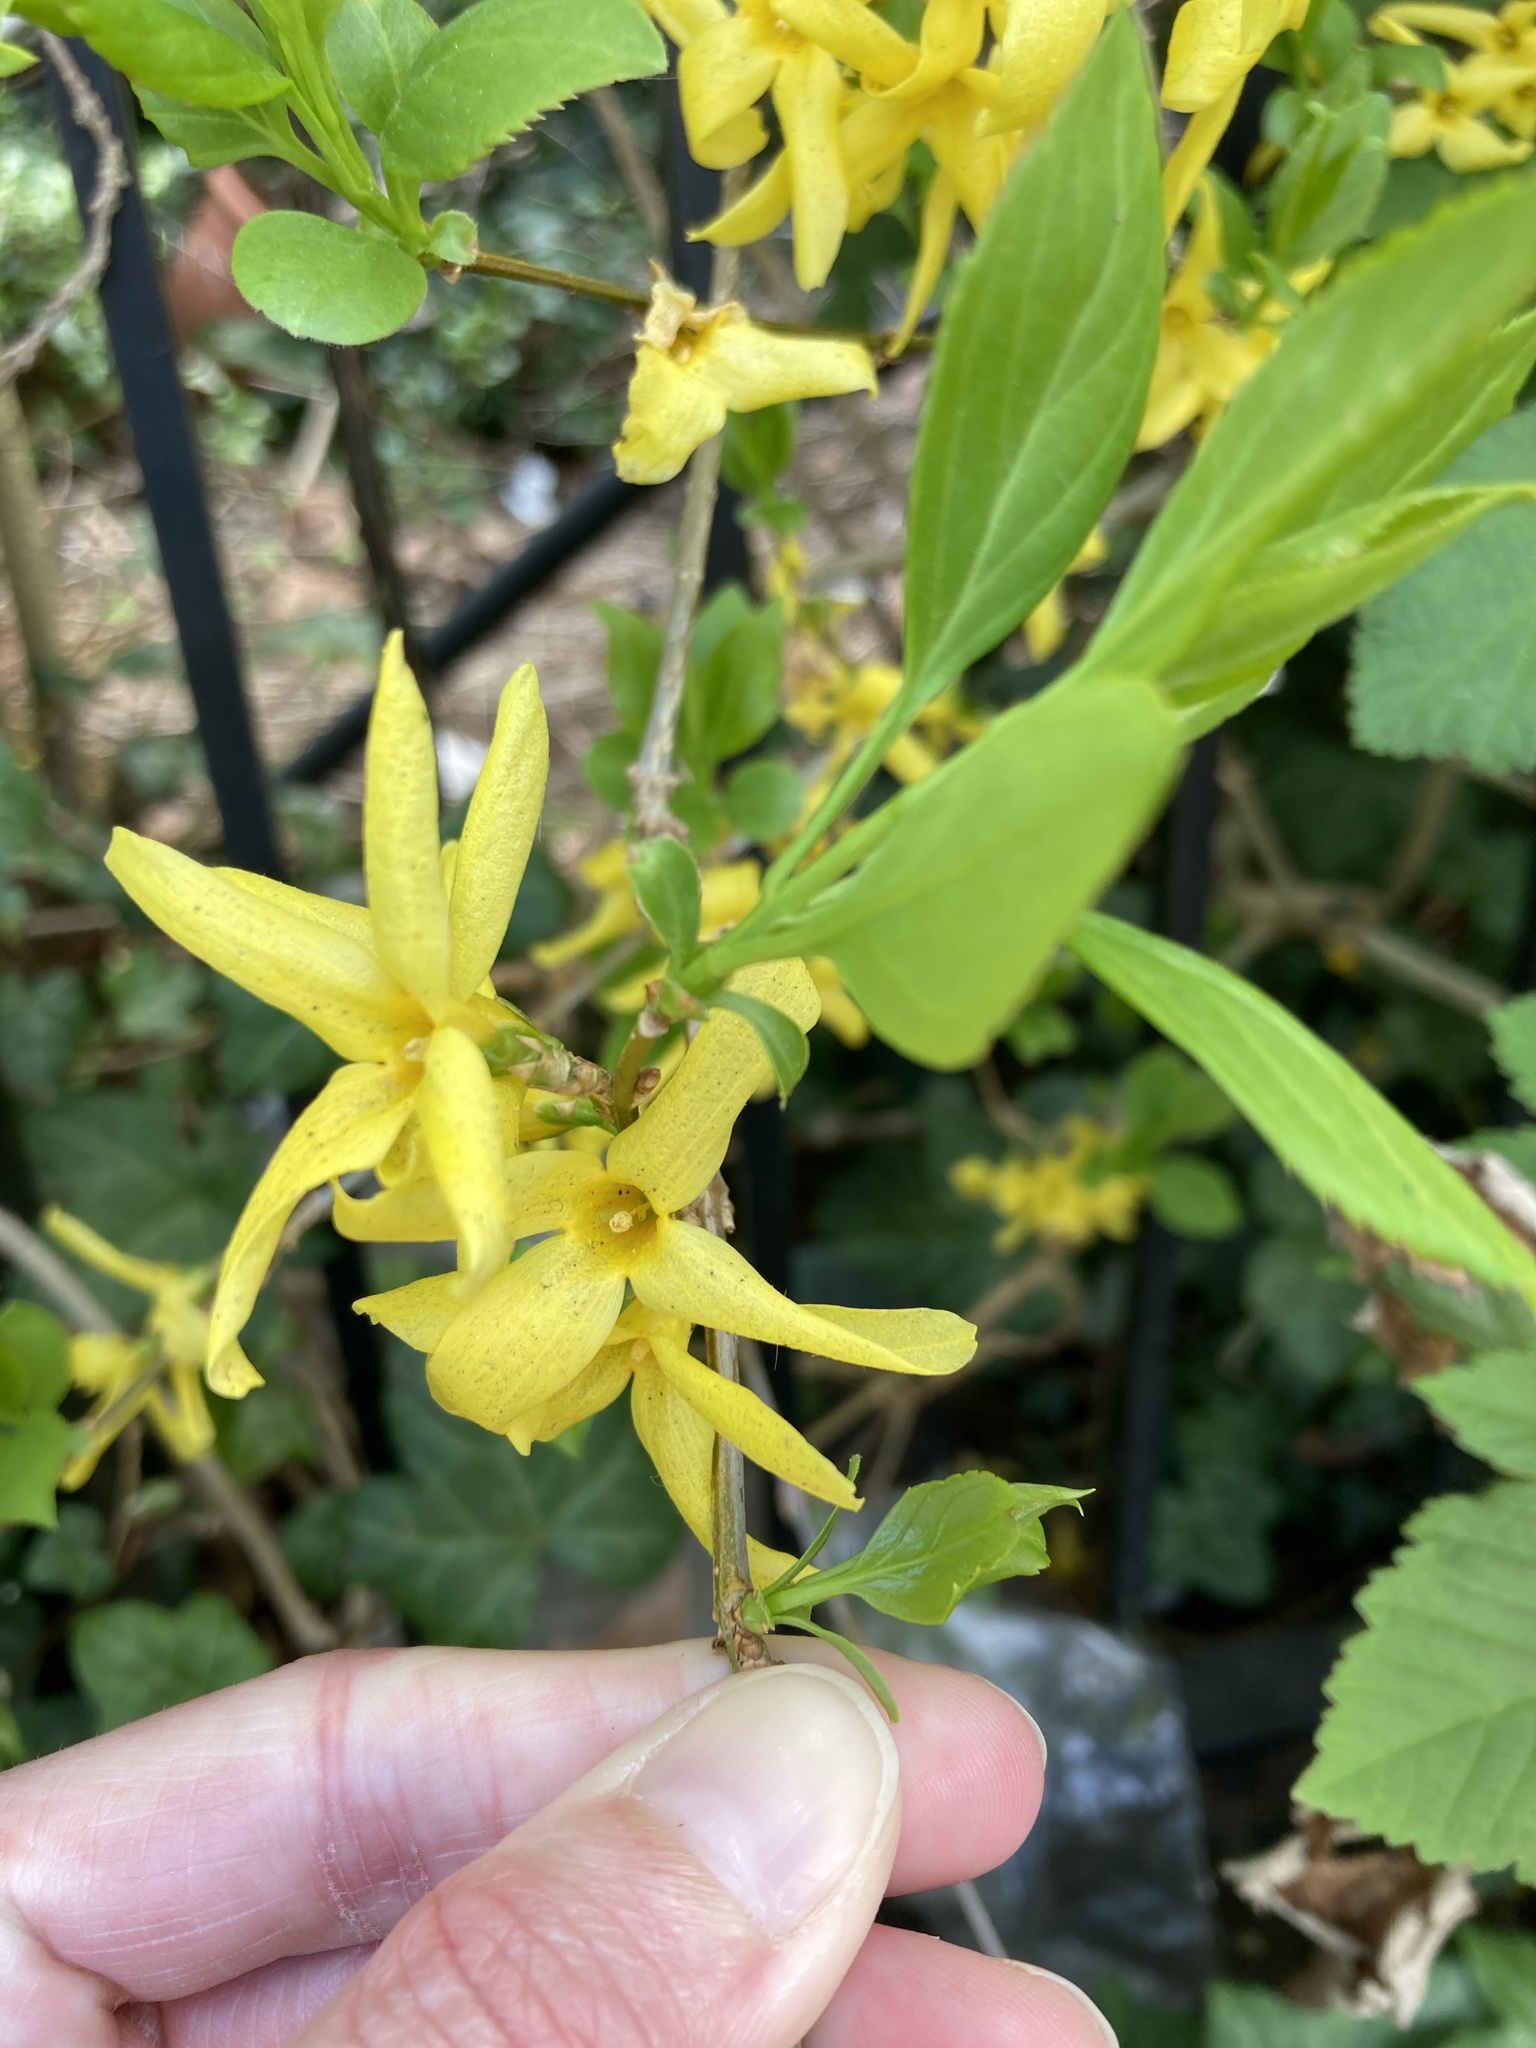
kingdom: Plantae
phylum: Tracheophyta
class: Magnoliopsida
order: Lamiales
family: Oleaceae
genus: Forsythia
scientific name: Forsythia intermedia
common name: Forsythia
